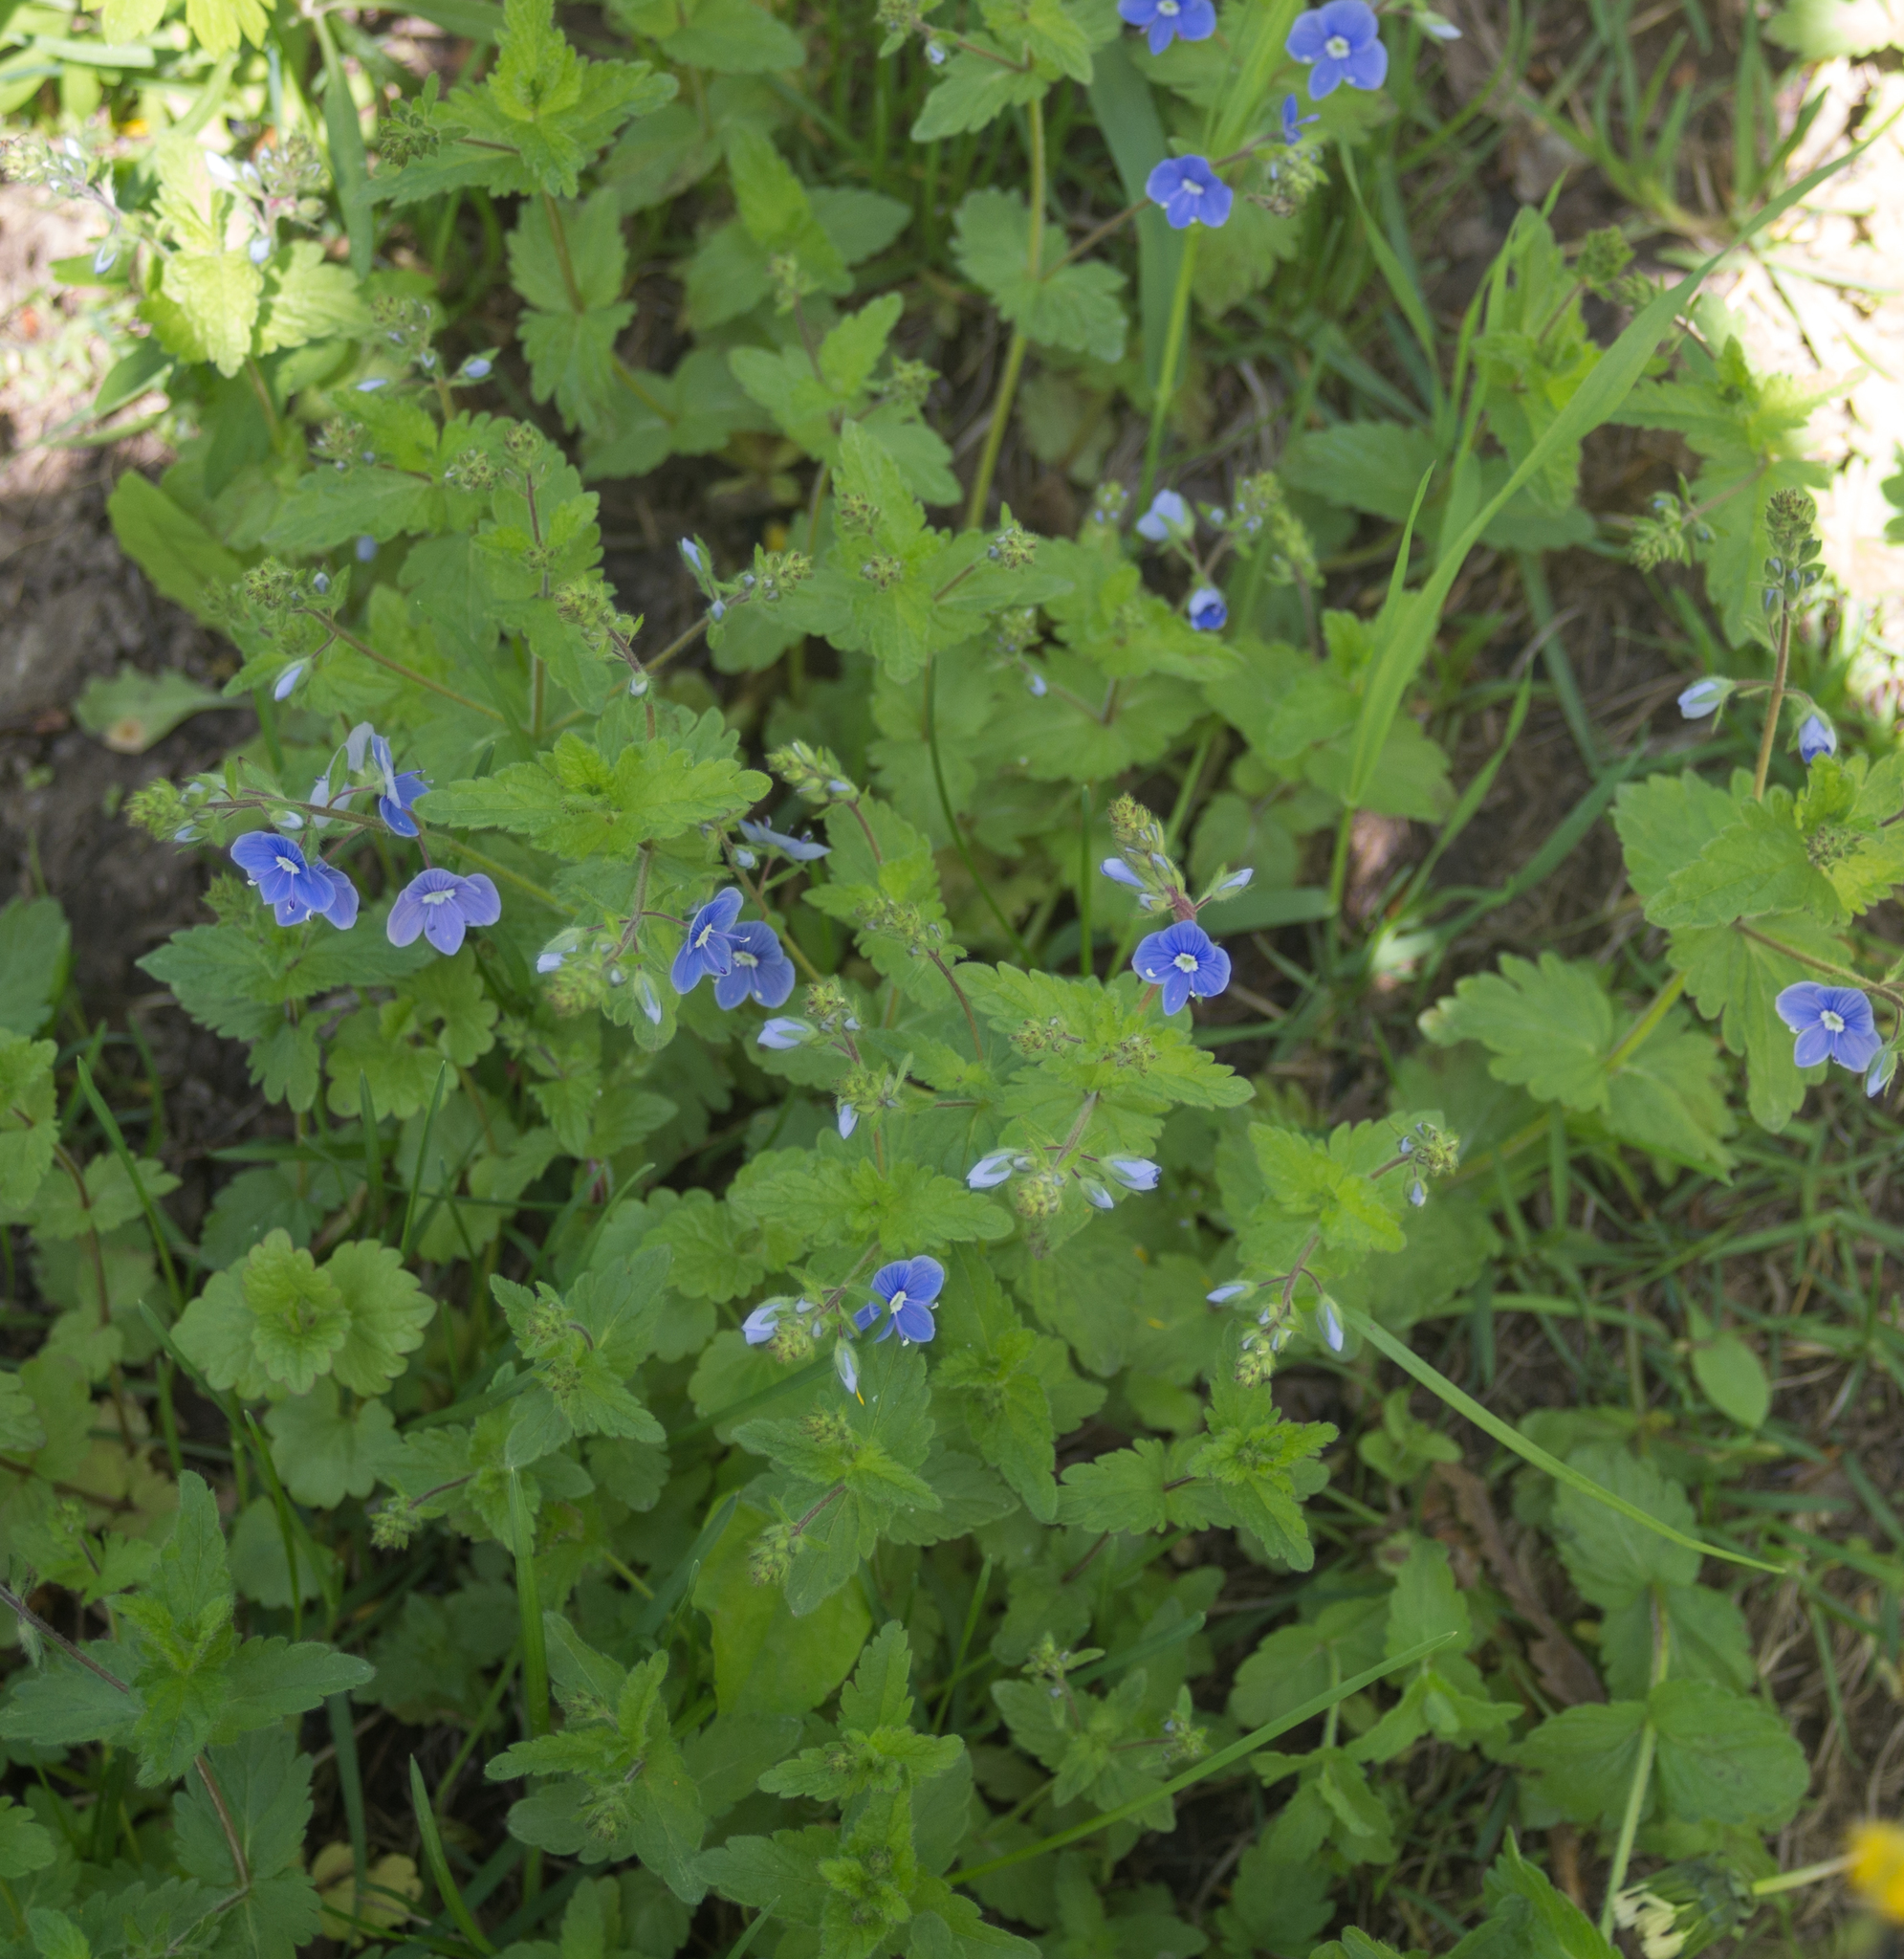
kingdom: Plantae
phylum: Tracheophyta
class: Magnoliopsida
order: Lamiales
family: Plantaginaceae
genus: Veronica
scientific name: Veronica chamaedrys
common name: Germander speedwell
